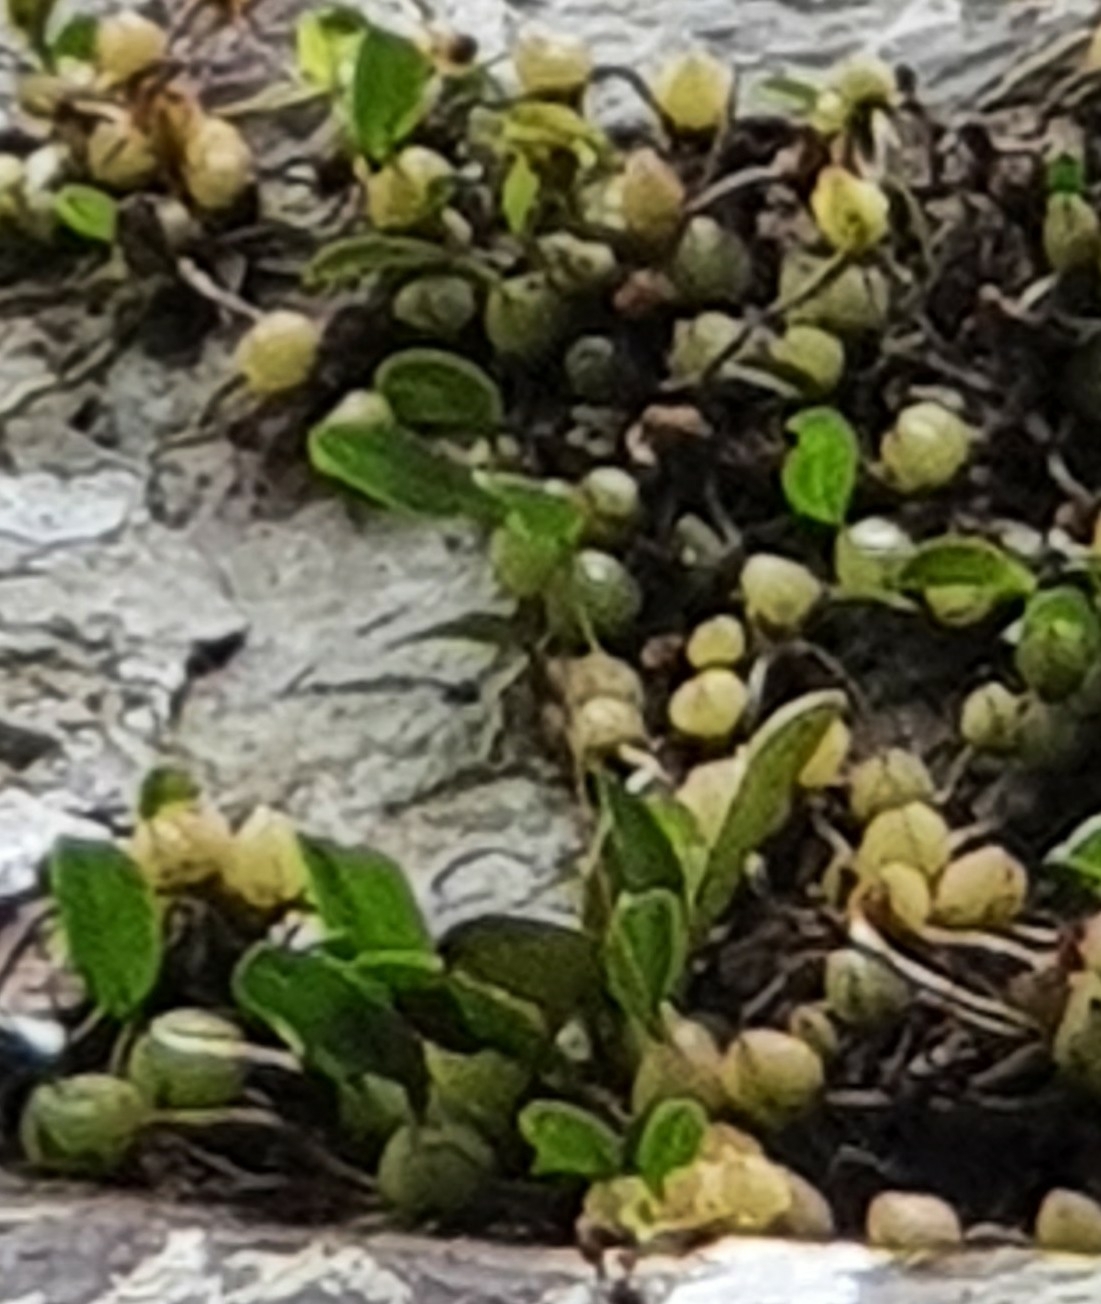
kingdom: Plantae
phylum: Tracheophyta
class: Liliopsida
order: Asparagales
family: Orchidaceae
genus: Bulbophyllum
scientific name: Bulbophyllum exiguum
